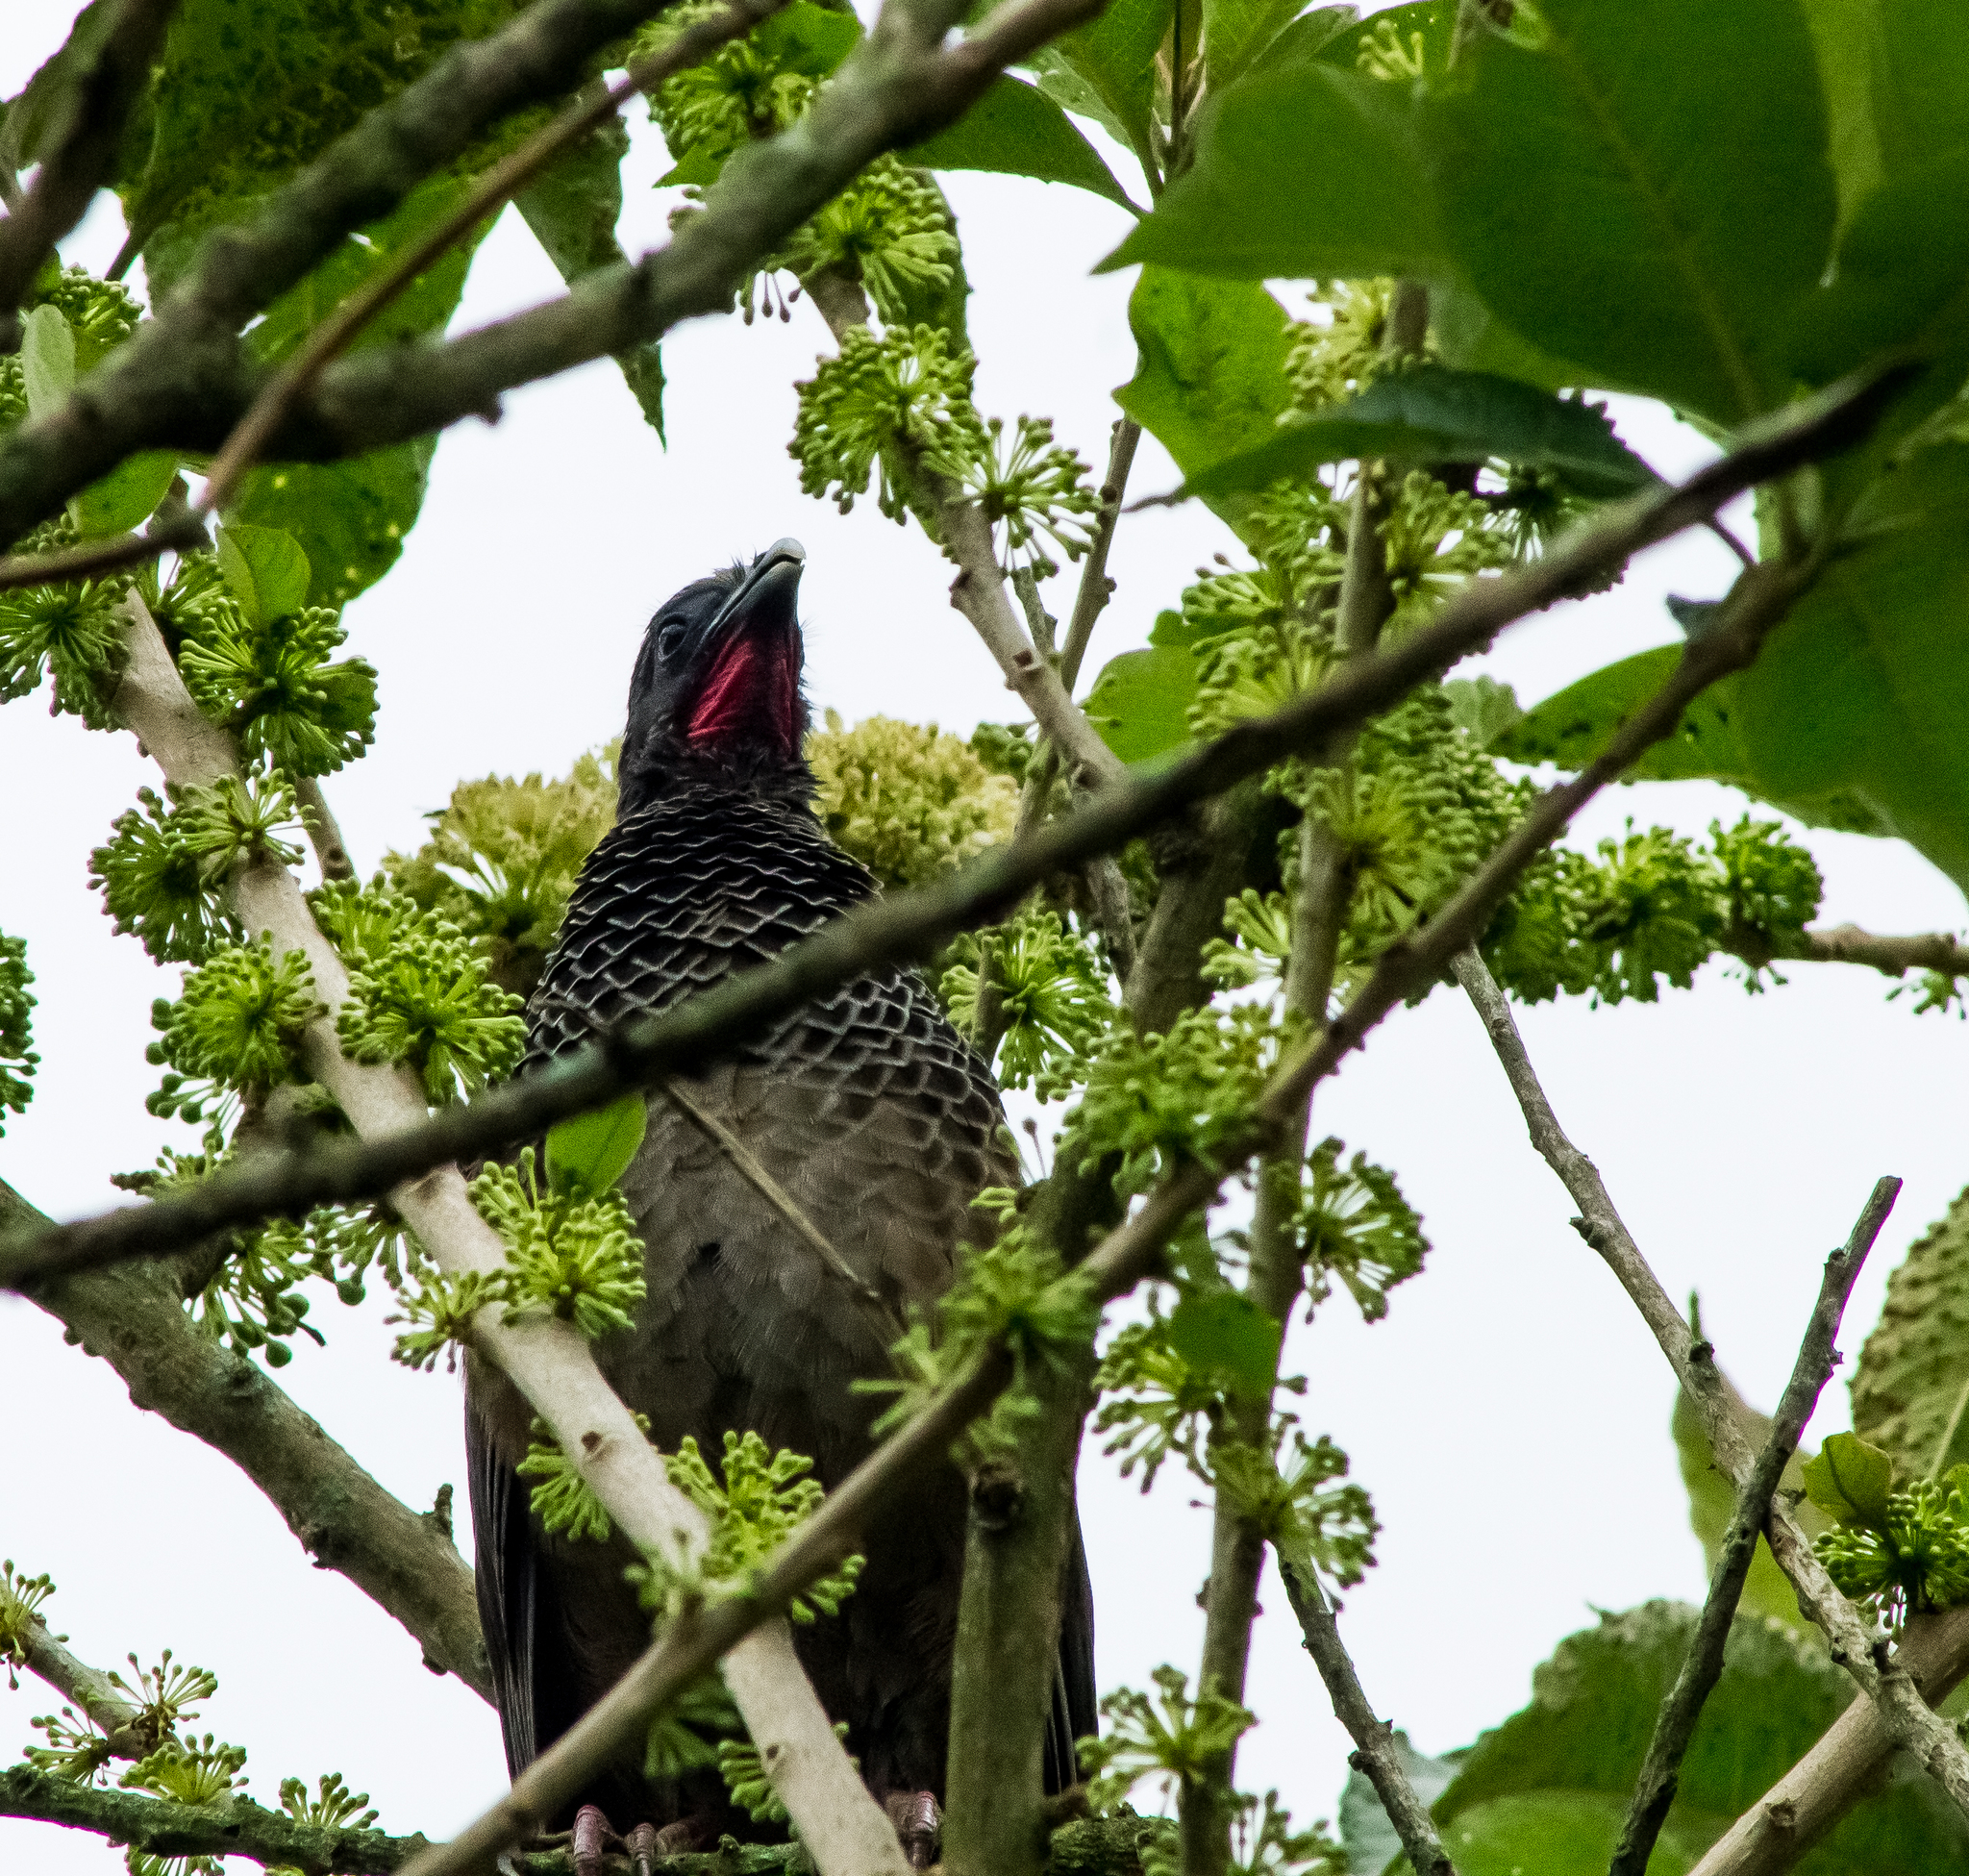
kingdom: Animalia
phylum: Chordata
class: Aves
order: Galliformes
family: Cracidae
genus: Ortalis
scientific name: Ortalis columbiana
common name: Colombian chachalaca
